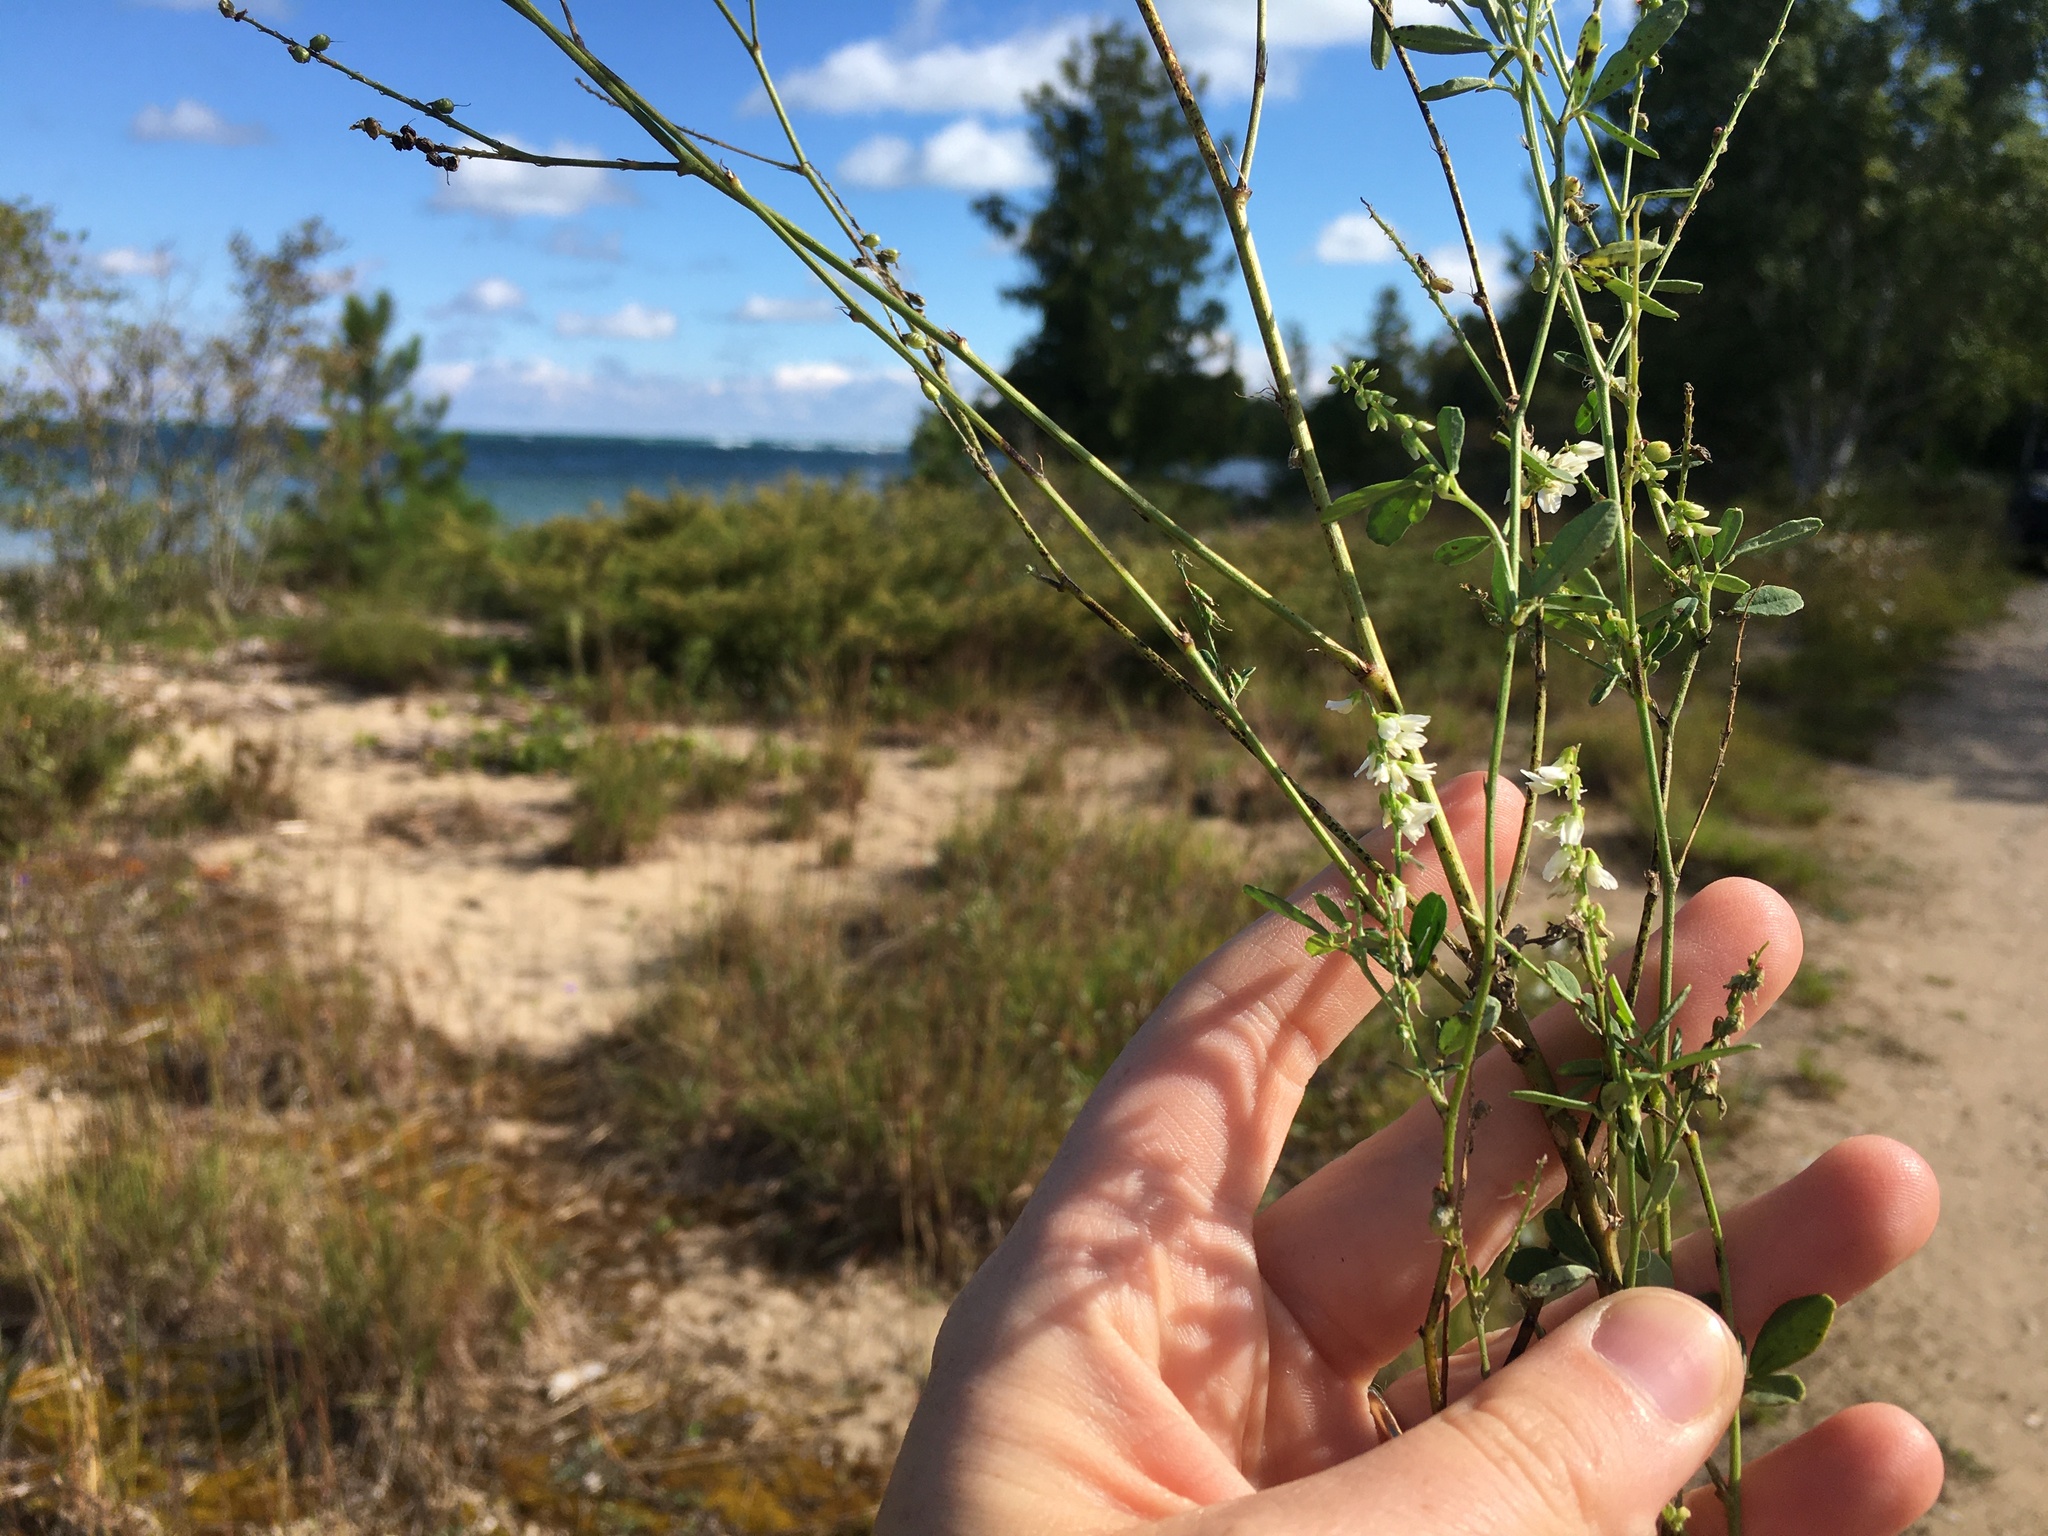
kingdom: Plantae
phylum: Tracheophyta
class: Magnoliopsida
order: Fabales
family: Fabaceae
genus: Melilotus
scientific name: Melilotus albus
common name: White melilot
